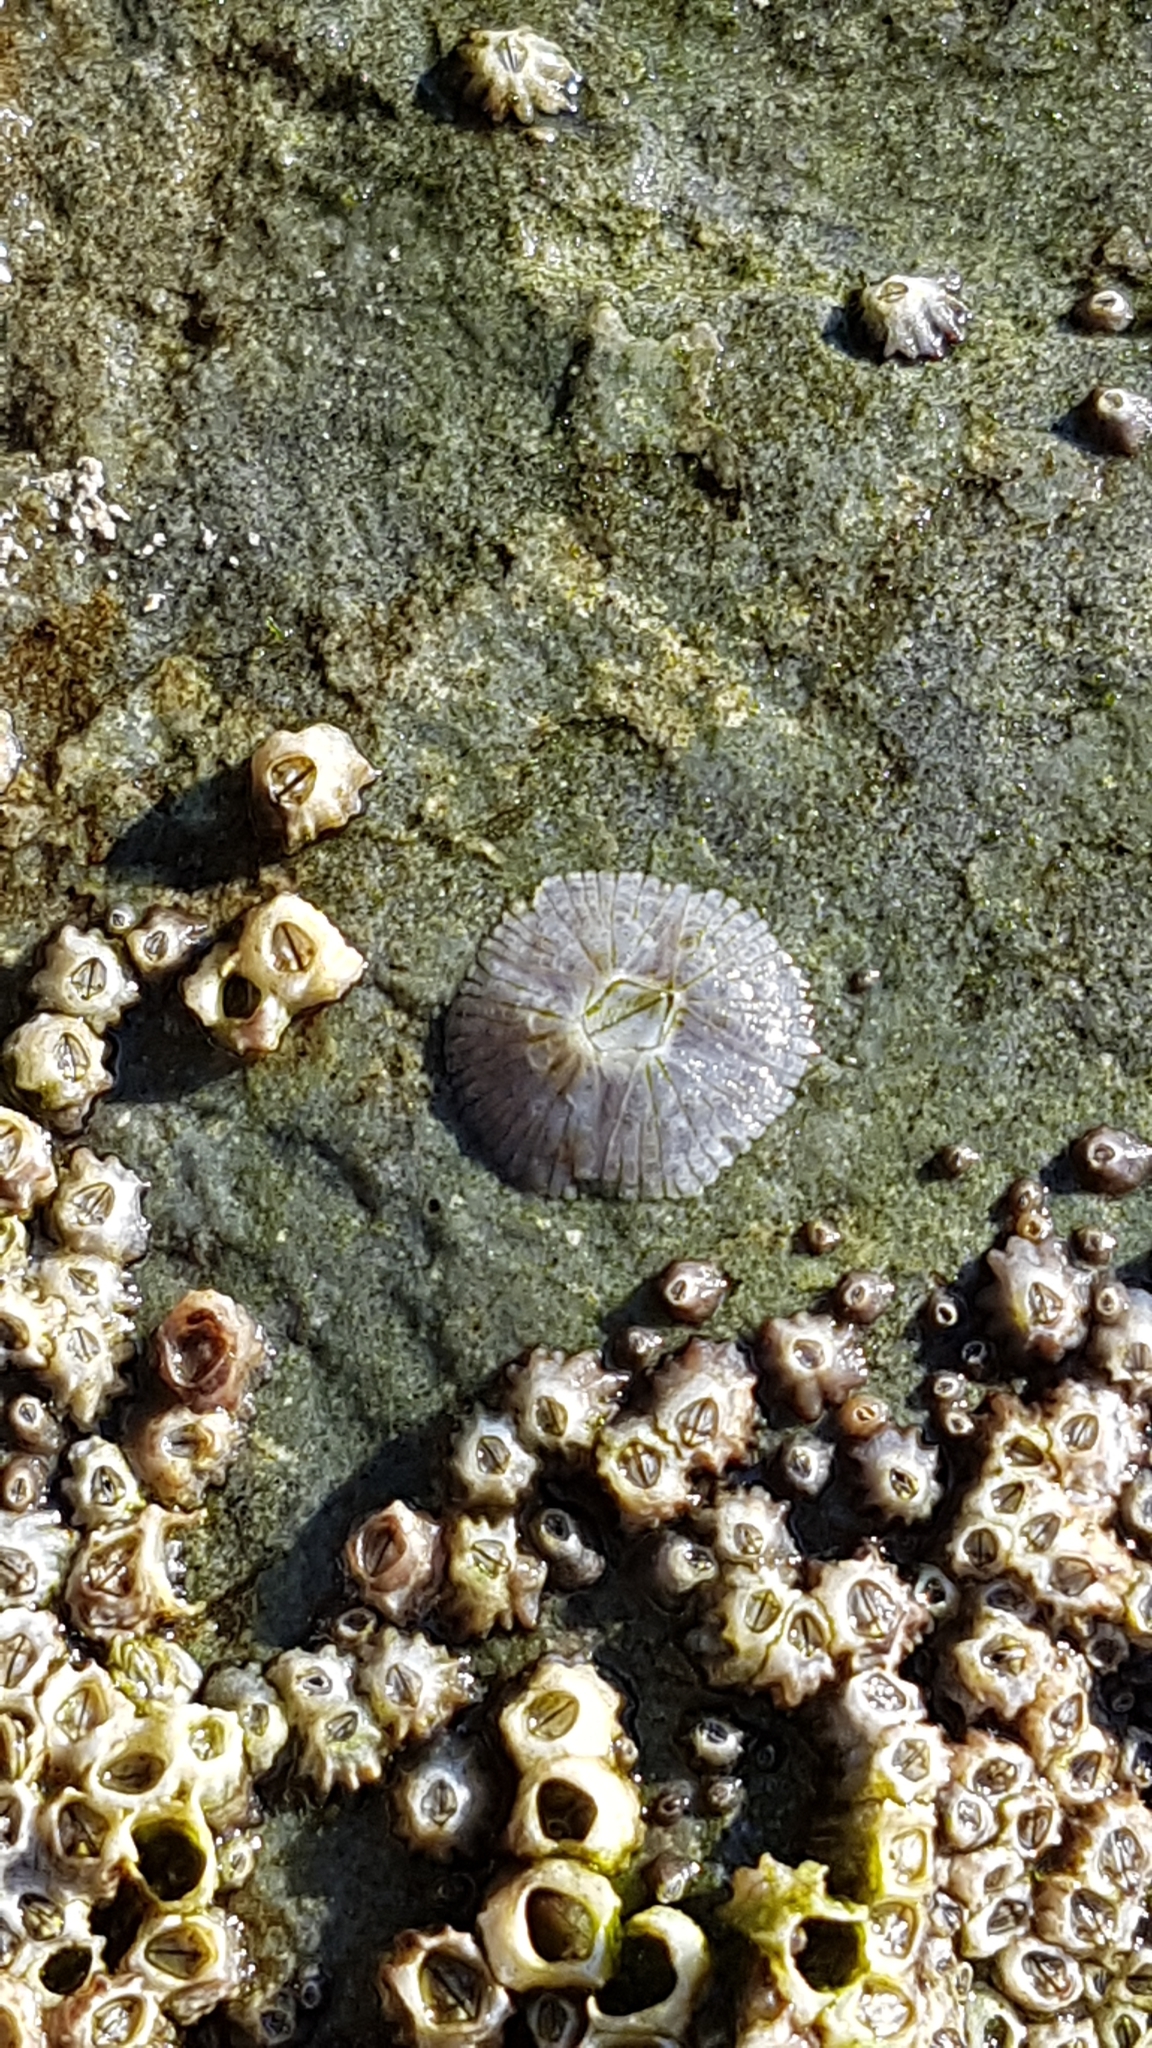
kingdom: Animalia
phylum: Arthropoda
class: Maxillopoda
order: Sessilia
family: Tetraclitidae
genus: Tetraclitella
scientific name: Tetraclitella depressa
